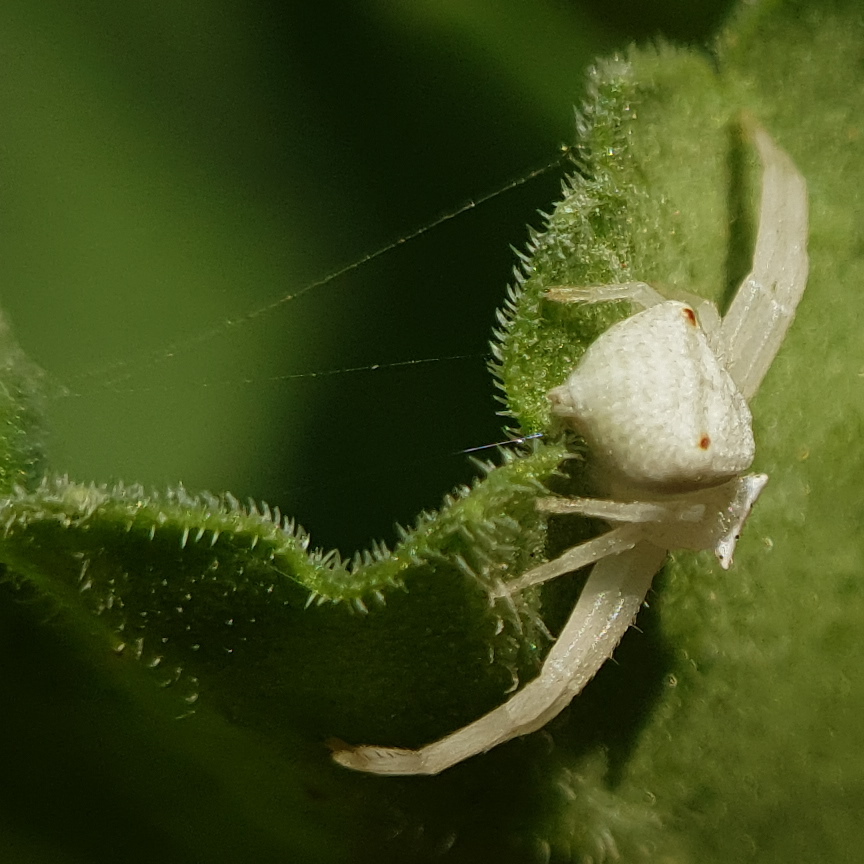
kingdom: Animalia
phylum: Arthropoda
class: Arachnida
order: Araneae
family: Thomisidae
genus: Thomisus
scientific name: Thomisus citrinellus
